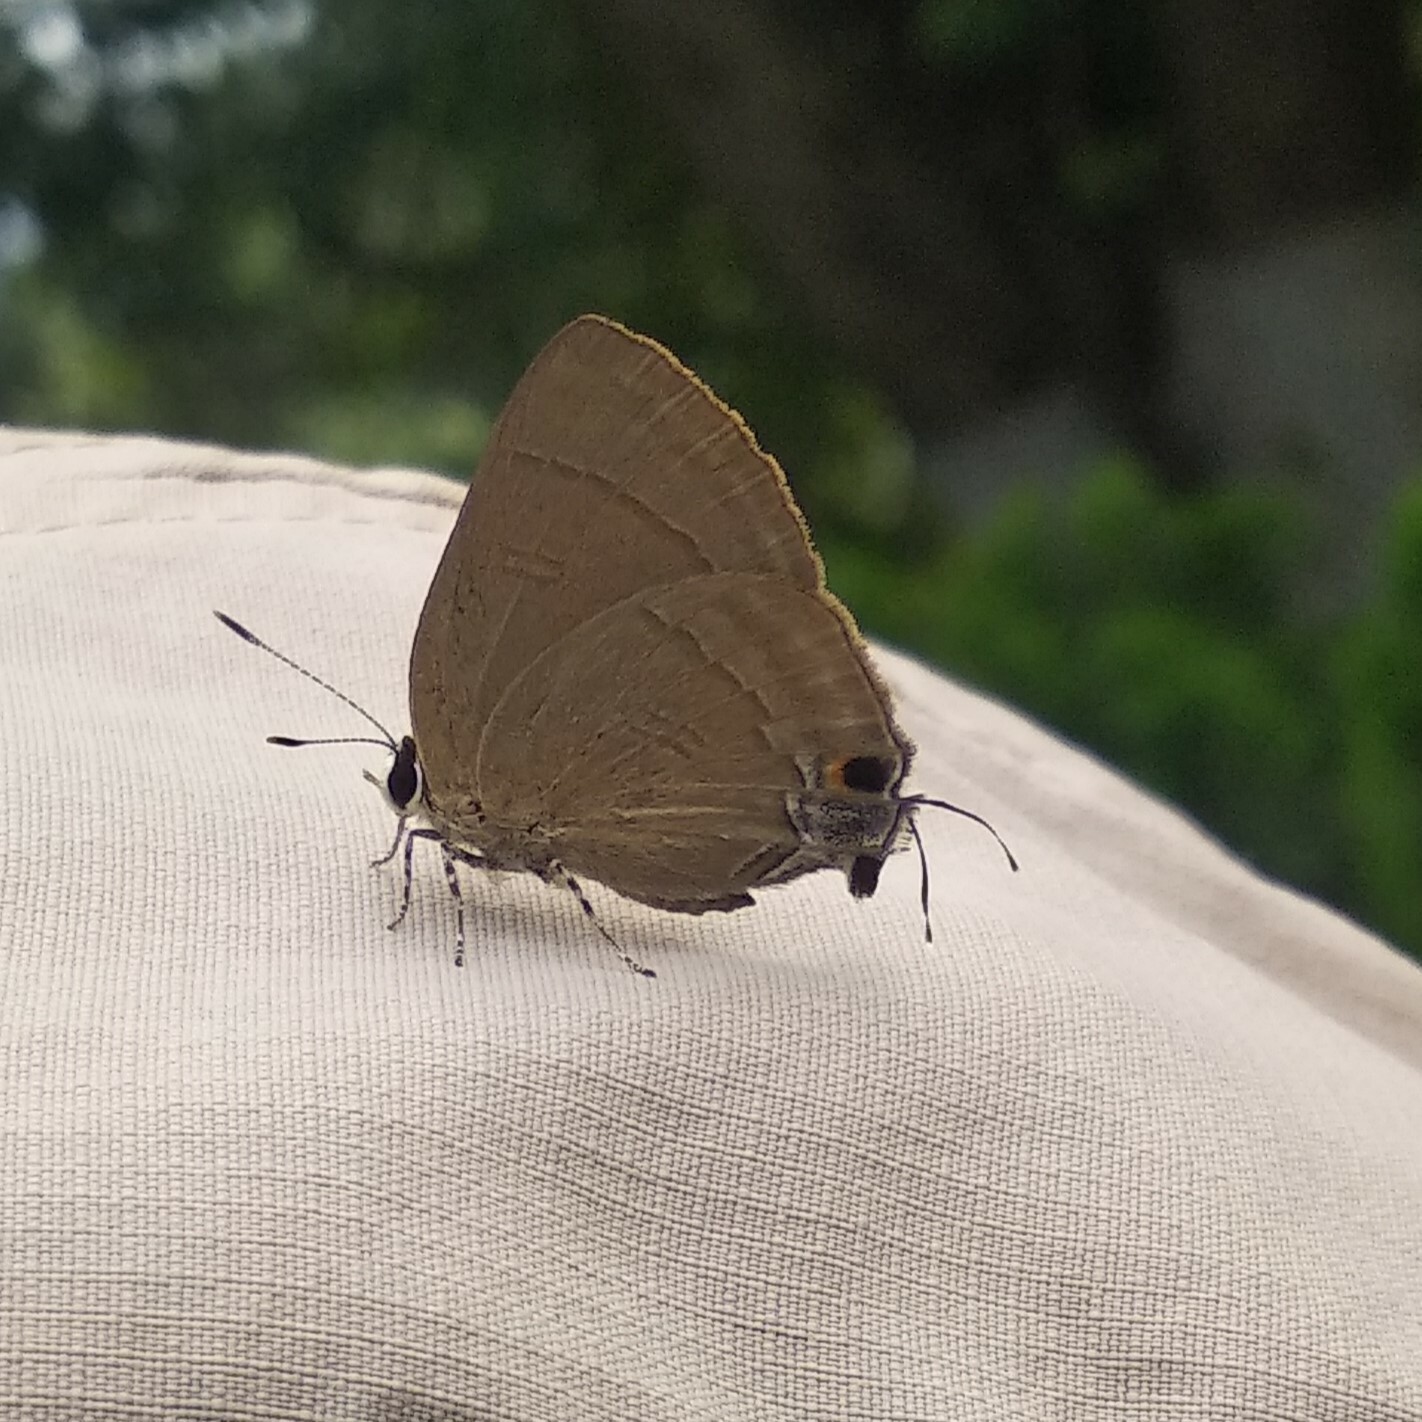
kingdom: Animalia
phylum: Arthropoda
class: Insecta
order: Lepidoptera
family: Lycaenidae
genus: Rapala
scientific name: Rapala manea
